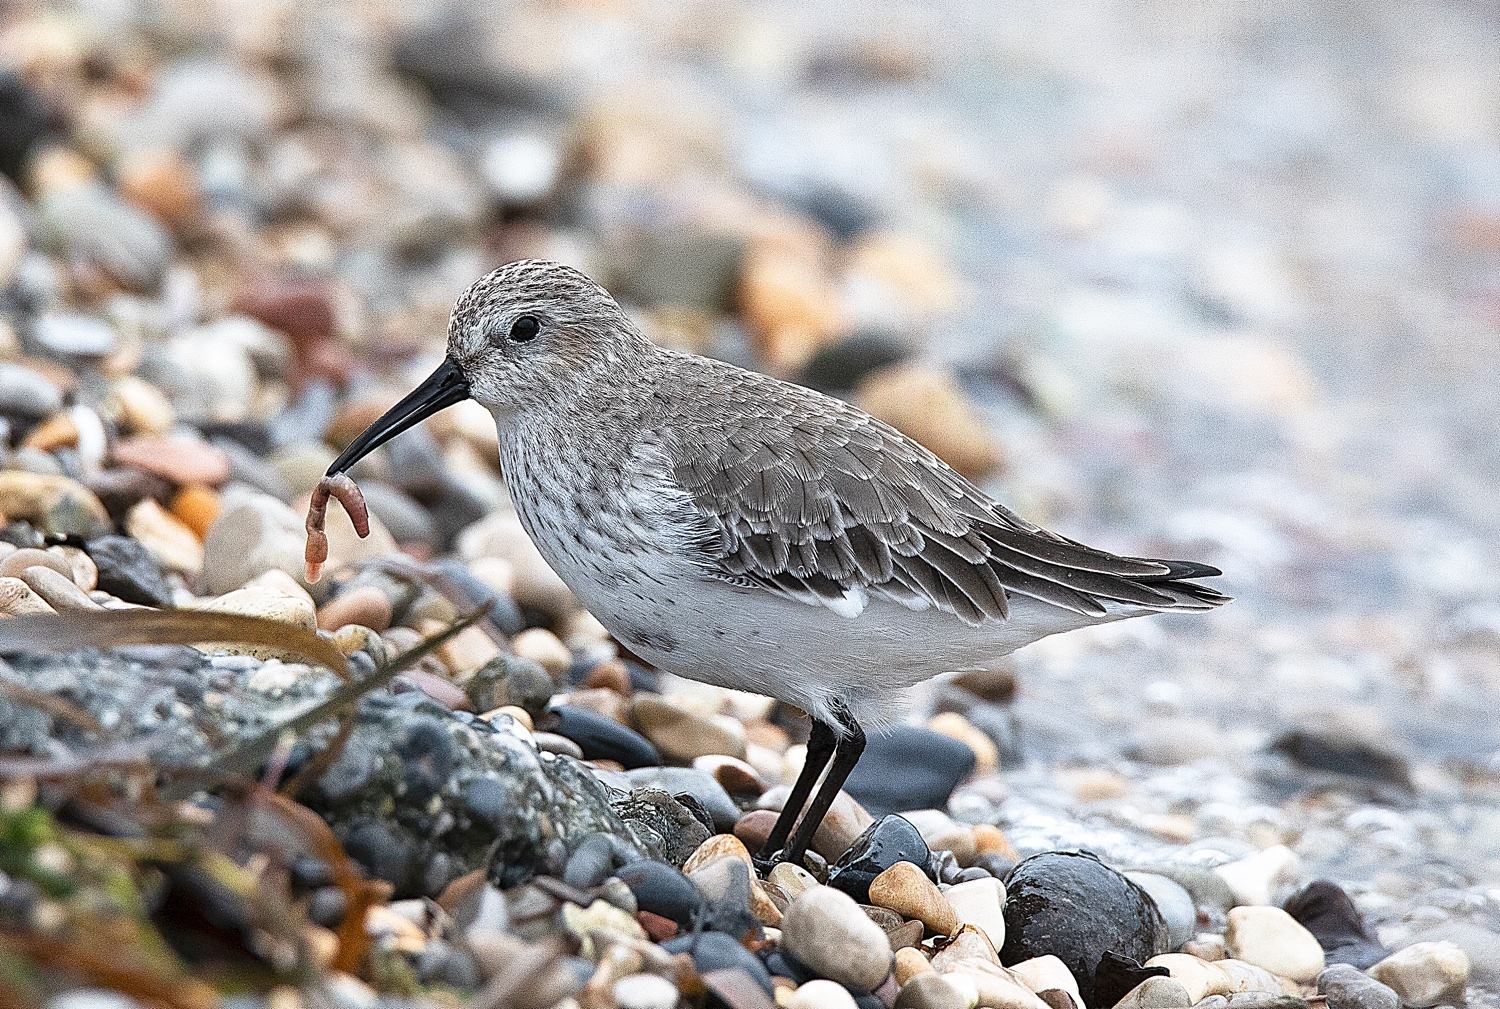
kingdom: Animalia
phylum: Chordata
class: Aves
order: Charadriiformes
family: Scolopacidae
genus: Calidris
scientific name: Calidris alpina
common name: Dunlin
